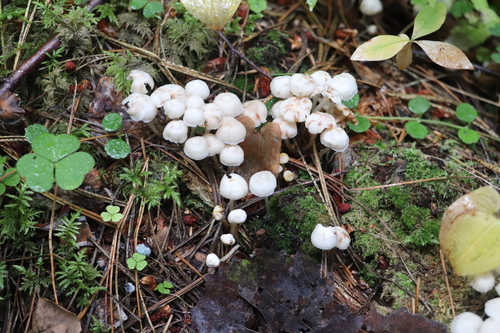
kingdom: Fungi
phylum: Basidiomycota
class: Agaricomycetes
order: Agaricales
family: Marasmiaceae
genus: Marasmius
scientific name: Marasmius wynneae
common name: Pearly parachute
